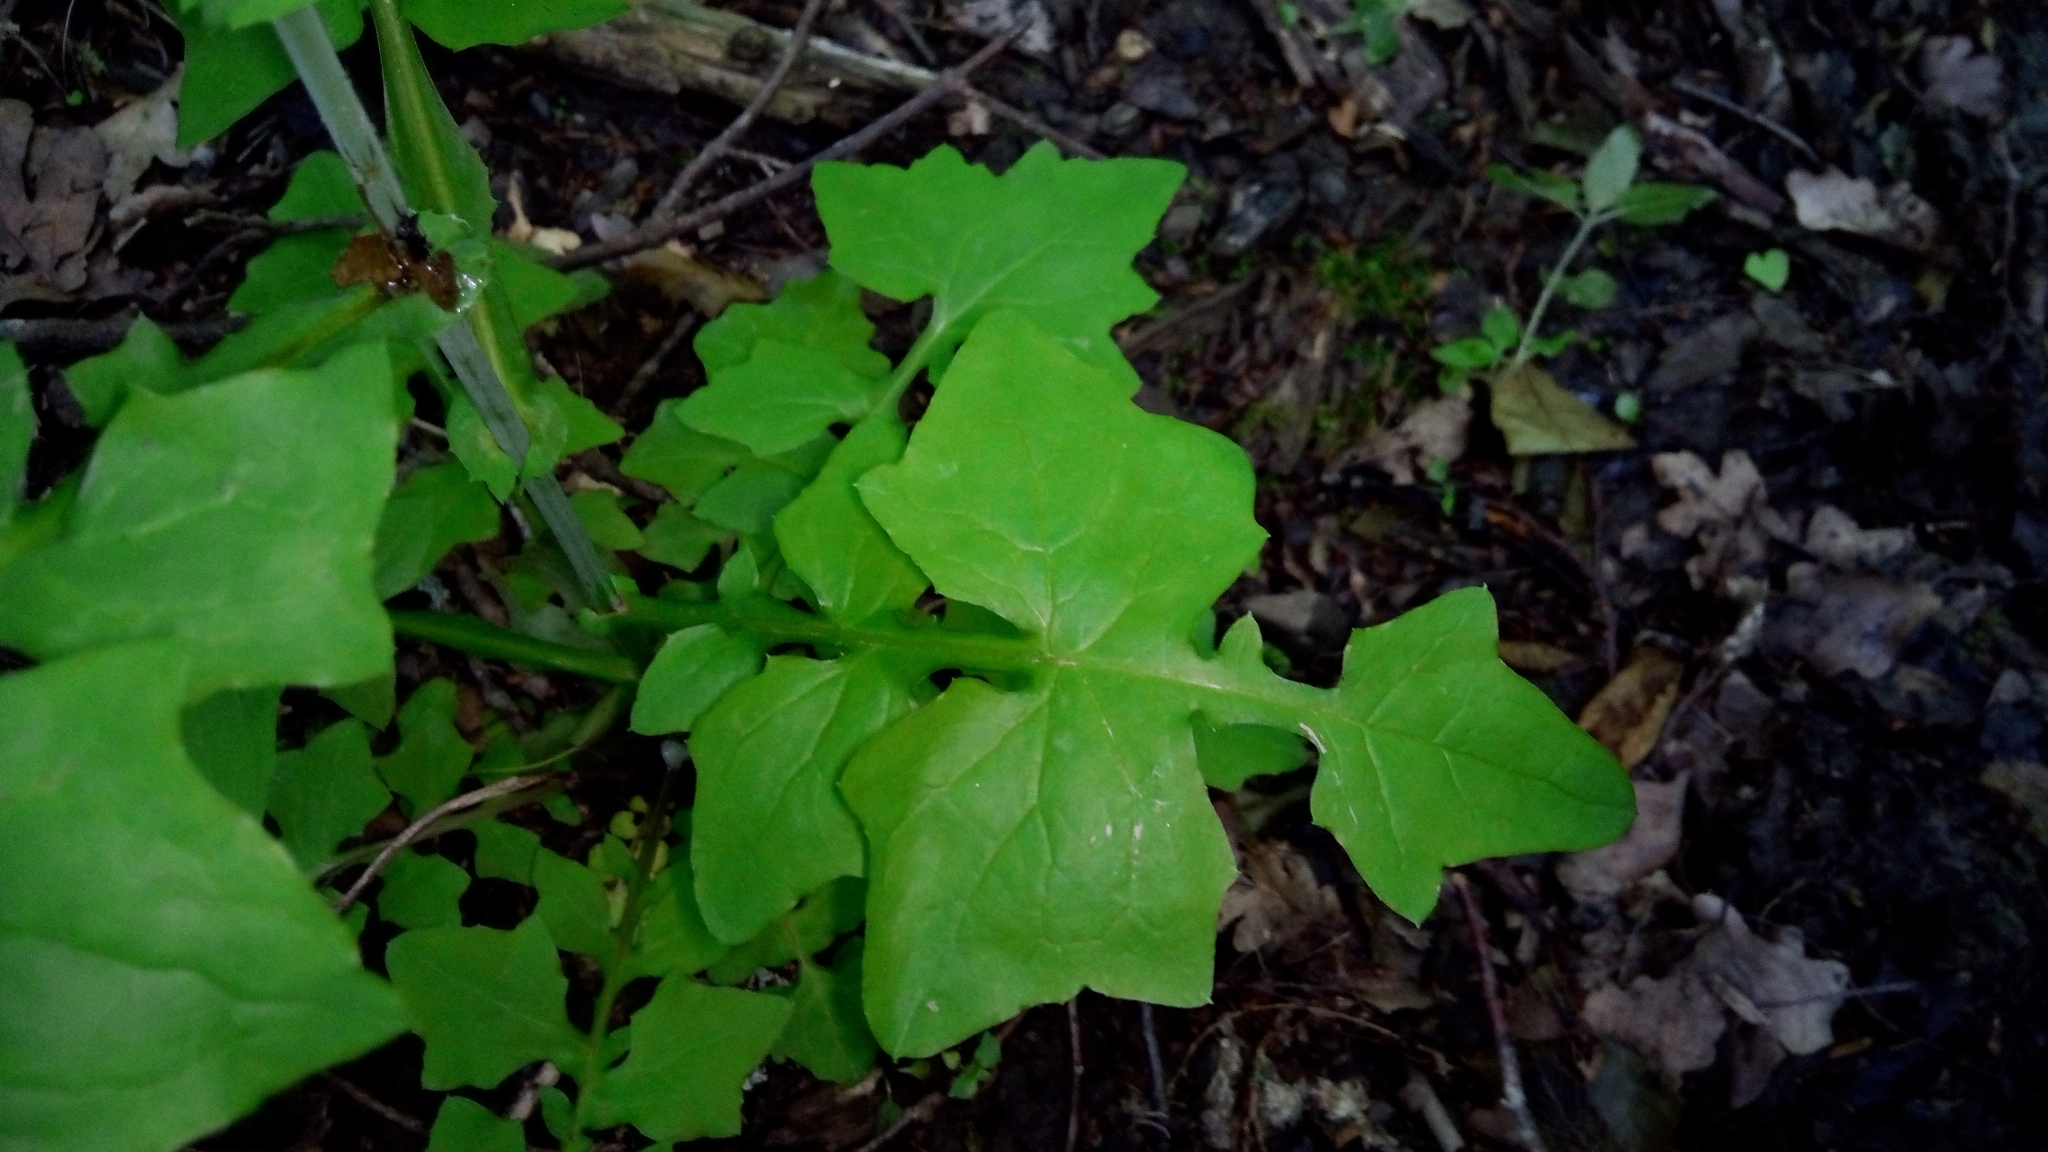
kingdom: Plantae
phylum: Tracheophyta
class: Magnoliopsida
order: Asterales
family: Asteraceae
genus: Mycelis
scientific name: Mycelis muralis
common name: Wall lettuce
